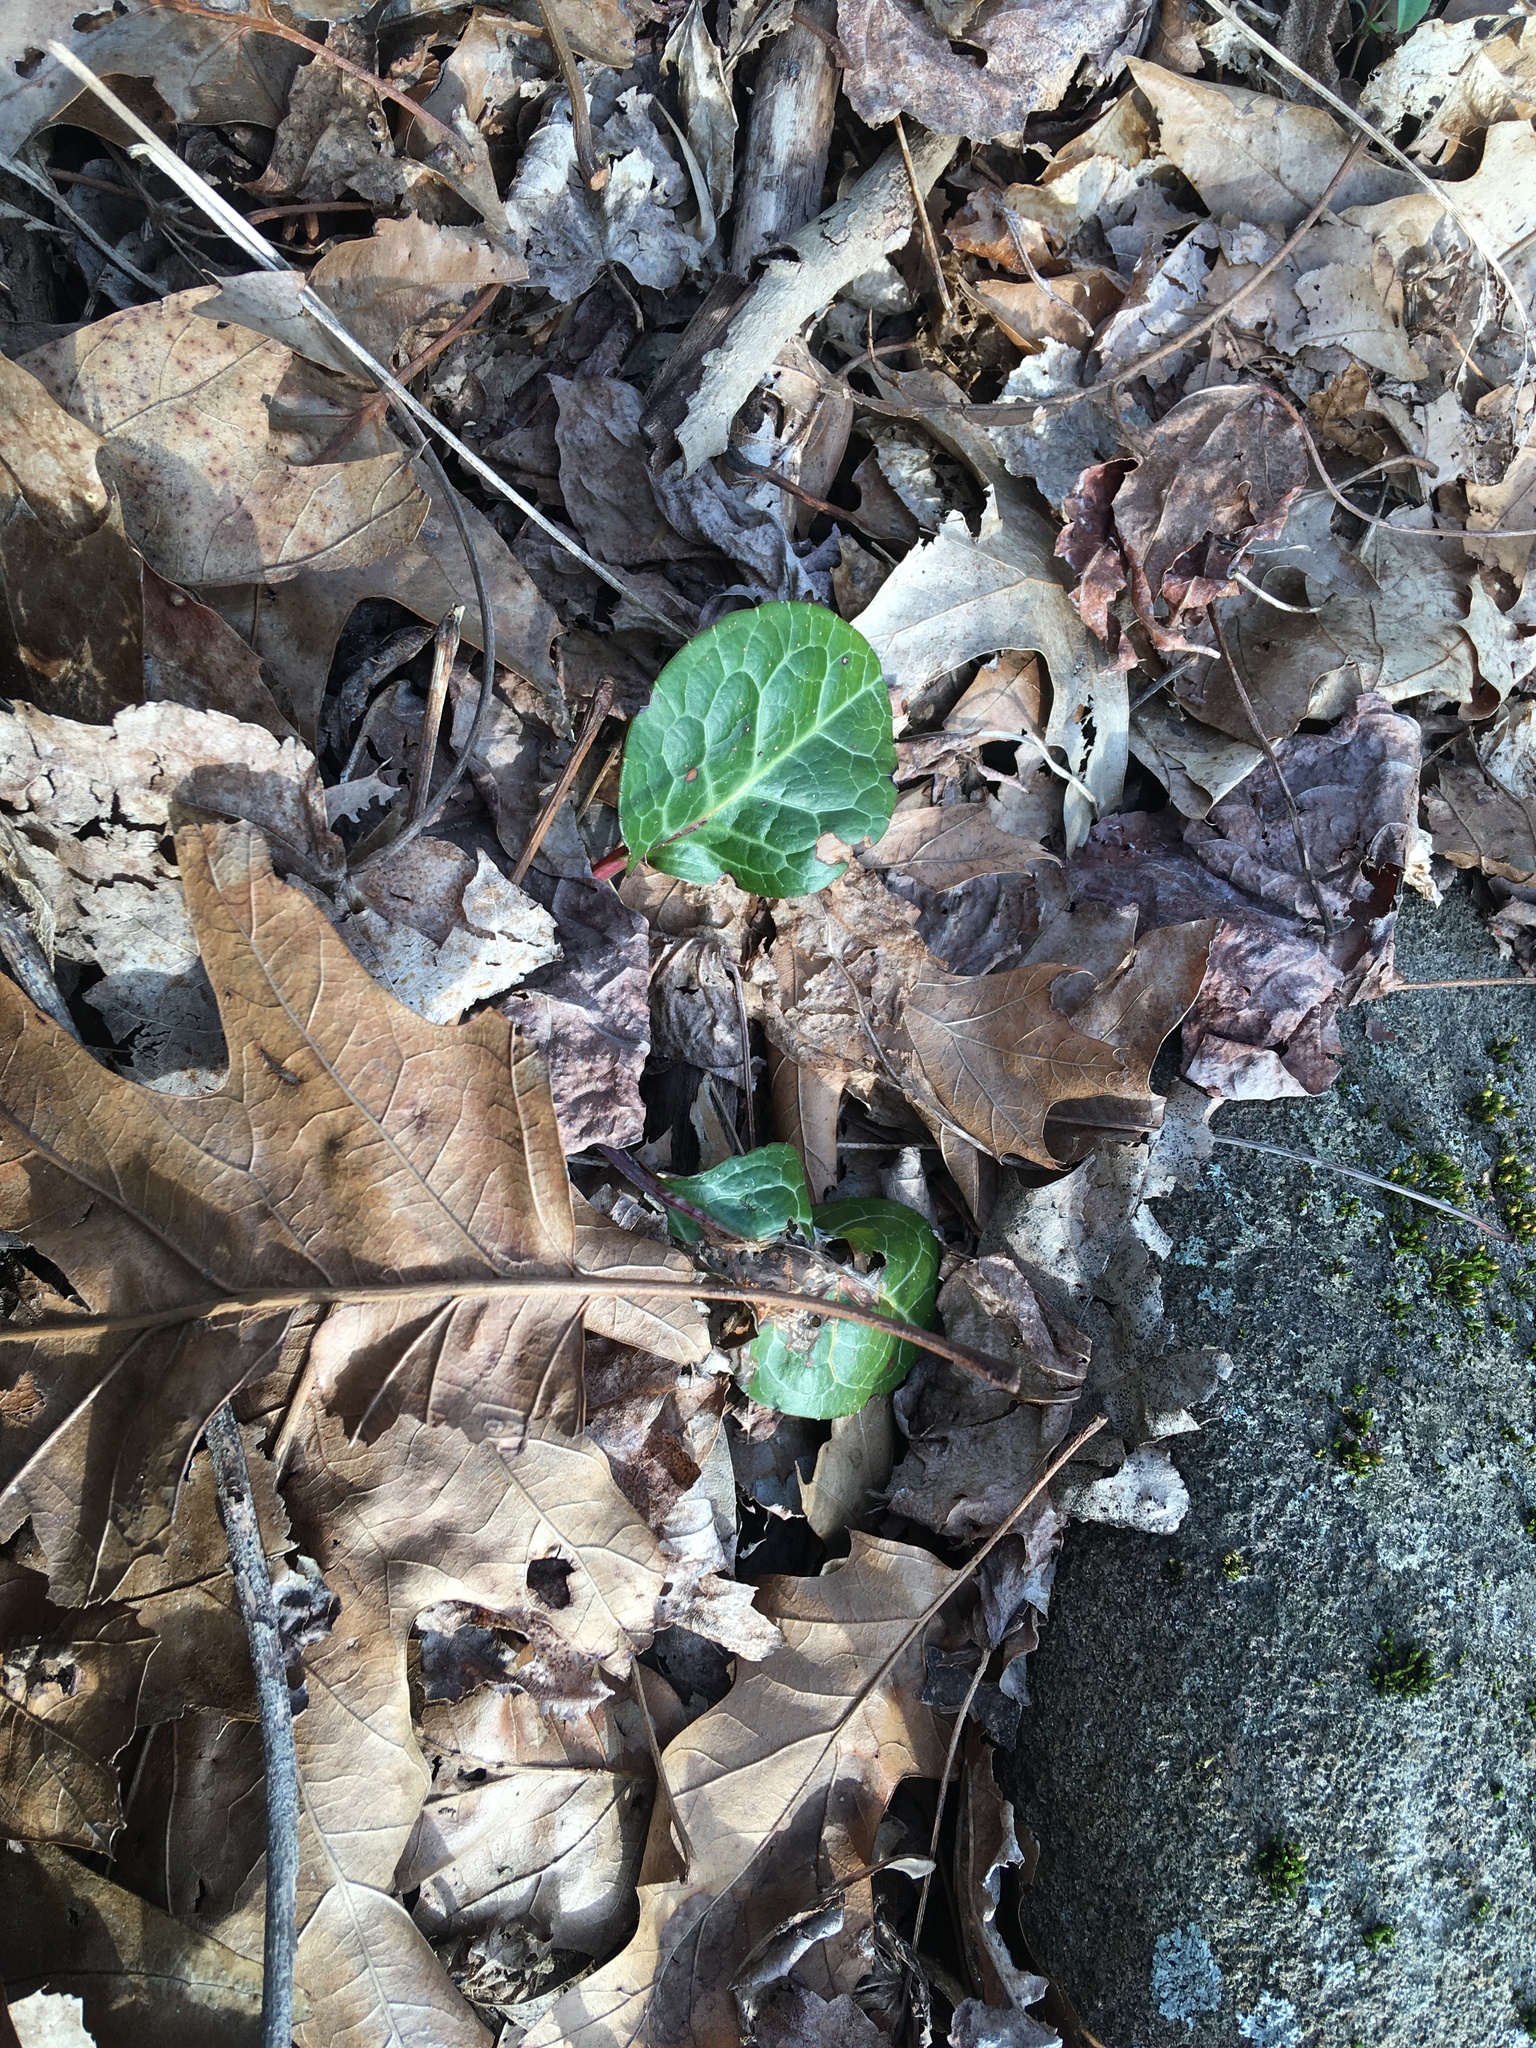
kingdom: Plantae
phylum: Tracheophyta
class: Magnoliopsida
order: Ericales
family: Ericaceae
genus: Pyrola
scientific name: Pyrola americana
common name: American wintergreen
